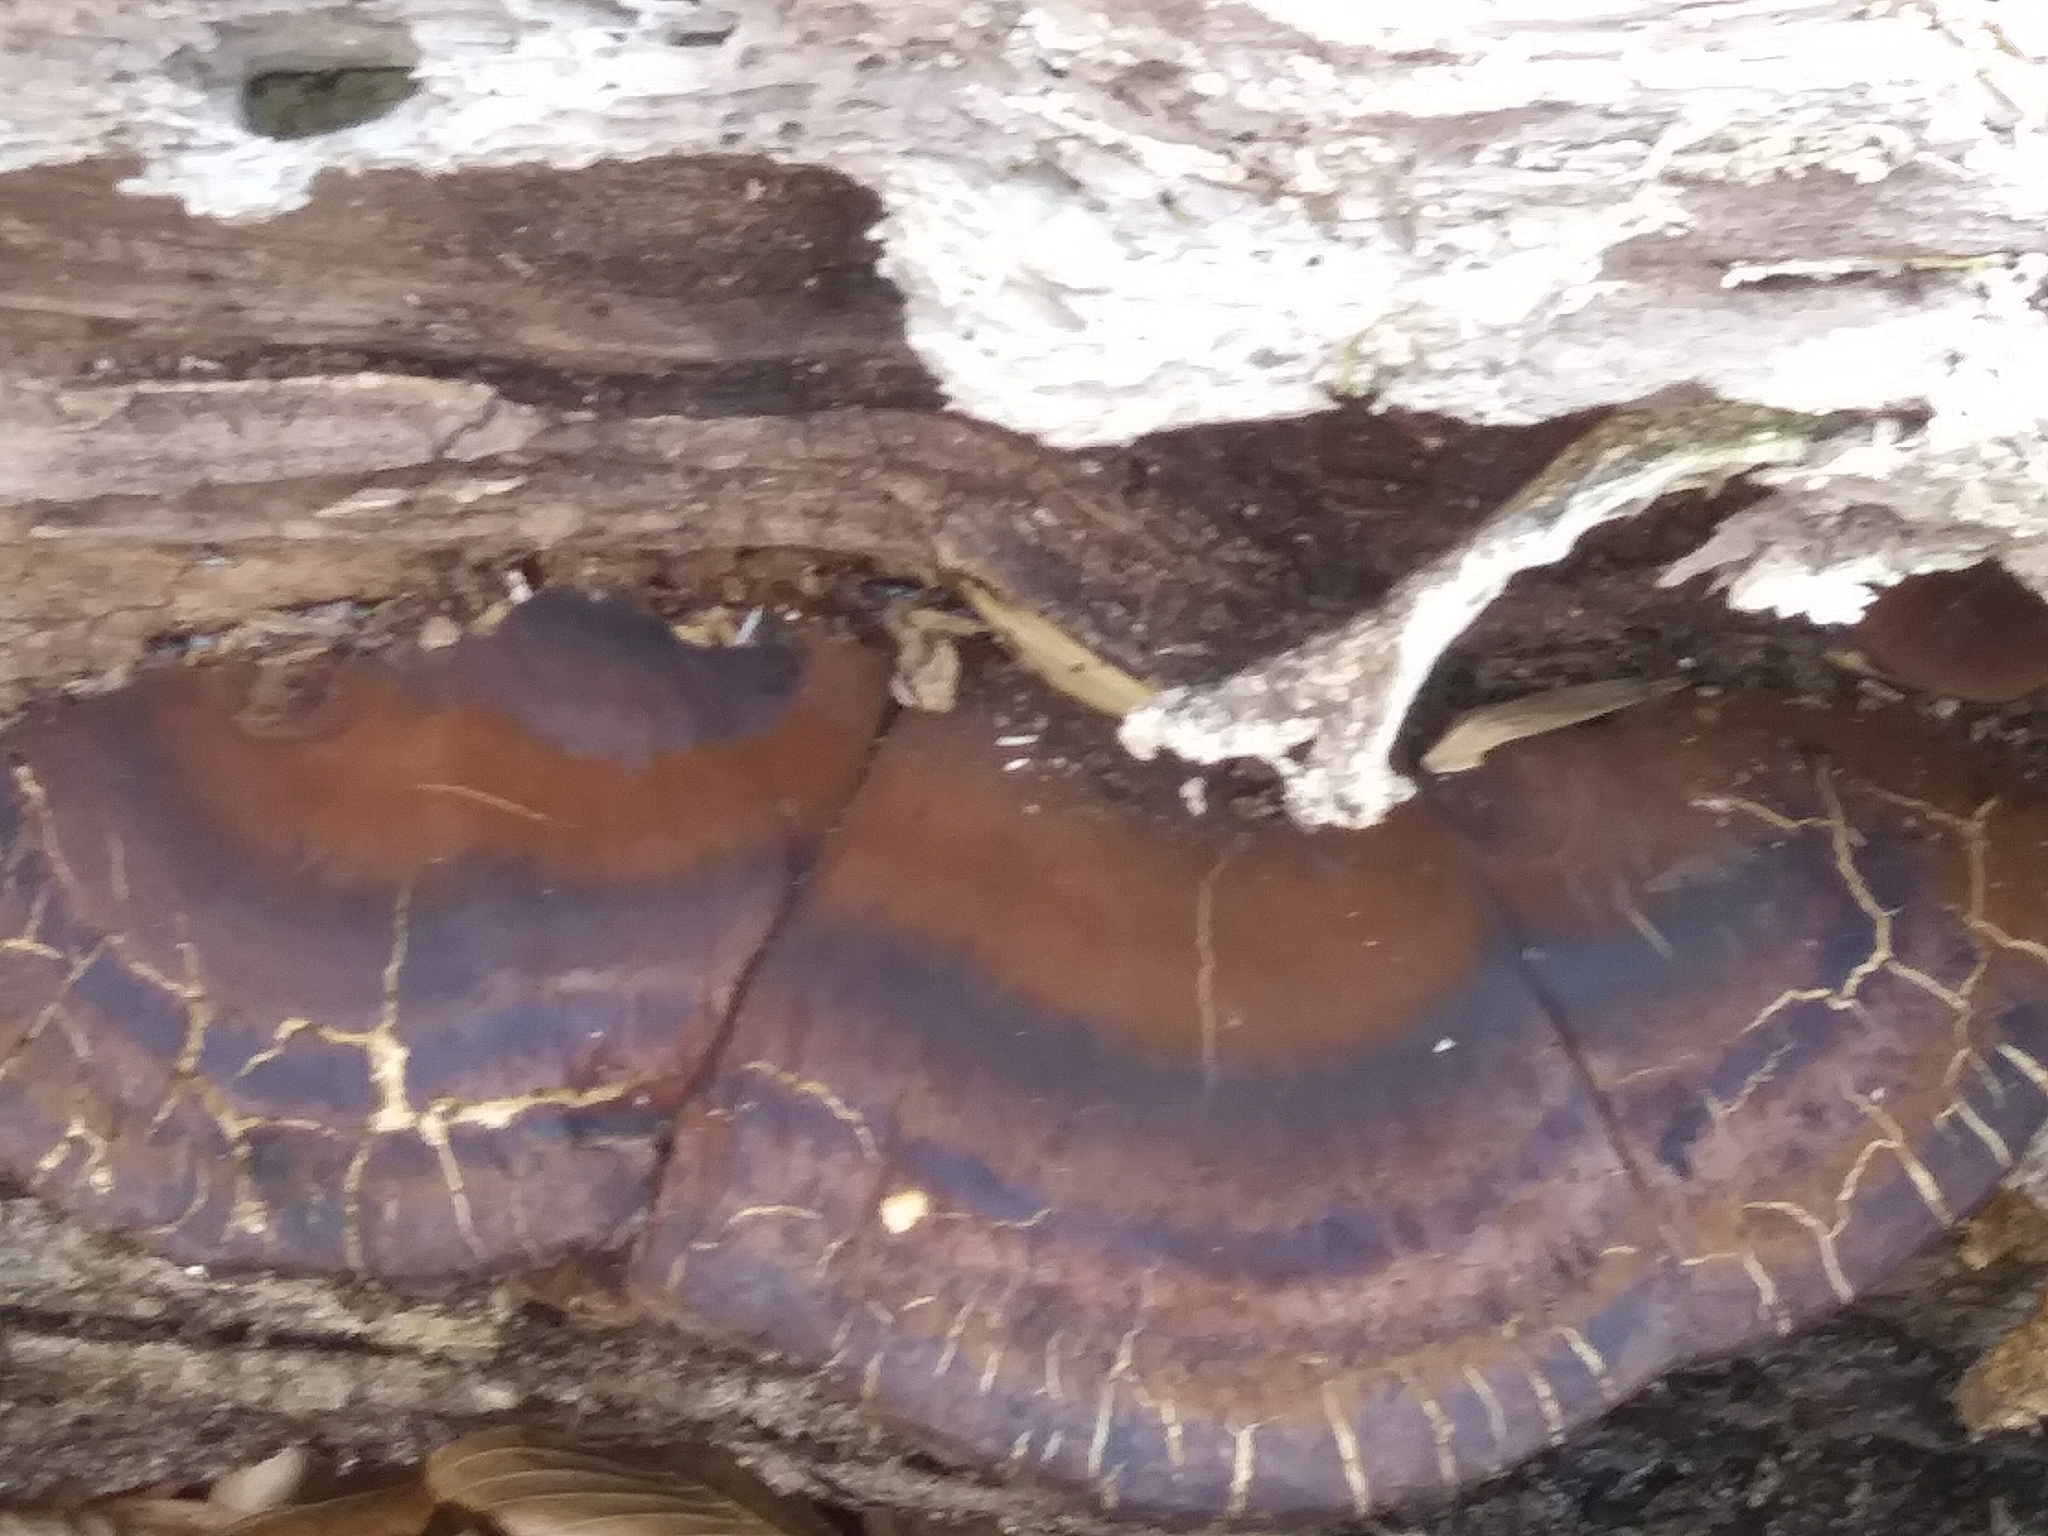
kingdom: Fungi
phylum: Basidiomycota
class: Agaricomycetes
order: Polyporales
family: Ischnodermataceae
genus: Ischnoderma
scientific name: Ischnoderma resinosum
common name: Resinous polypore
